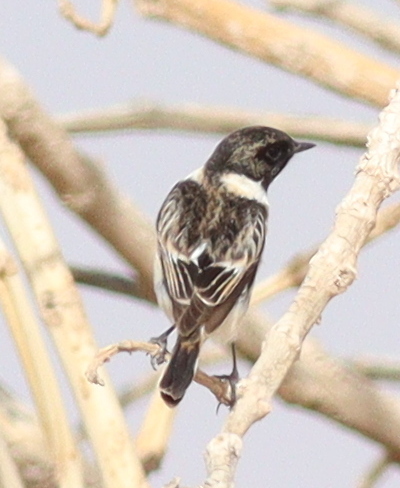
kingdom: Animalia
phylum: Chordata
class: Aves
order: Passeriformes
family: Muscicapidae
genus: Saxicola
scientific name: Saxicola maurus
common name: Siberian stonechat
